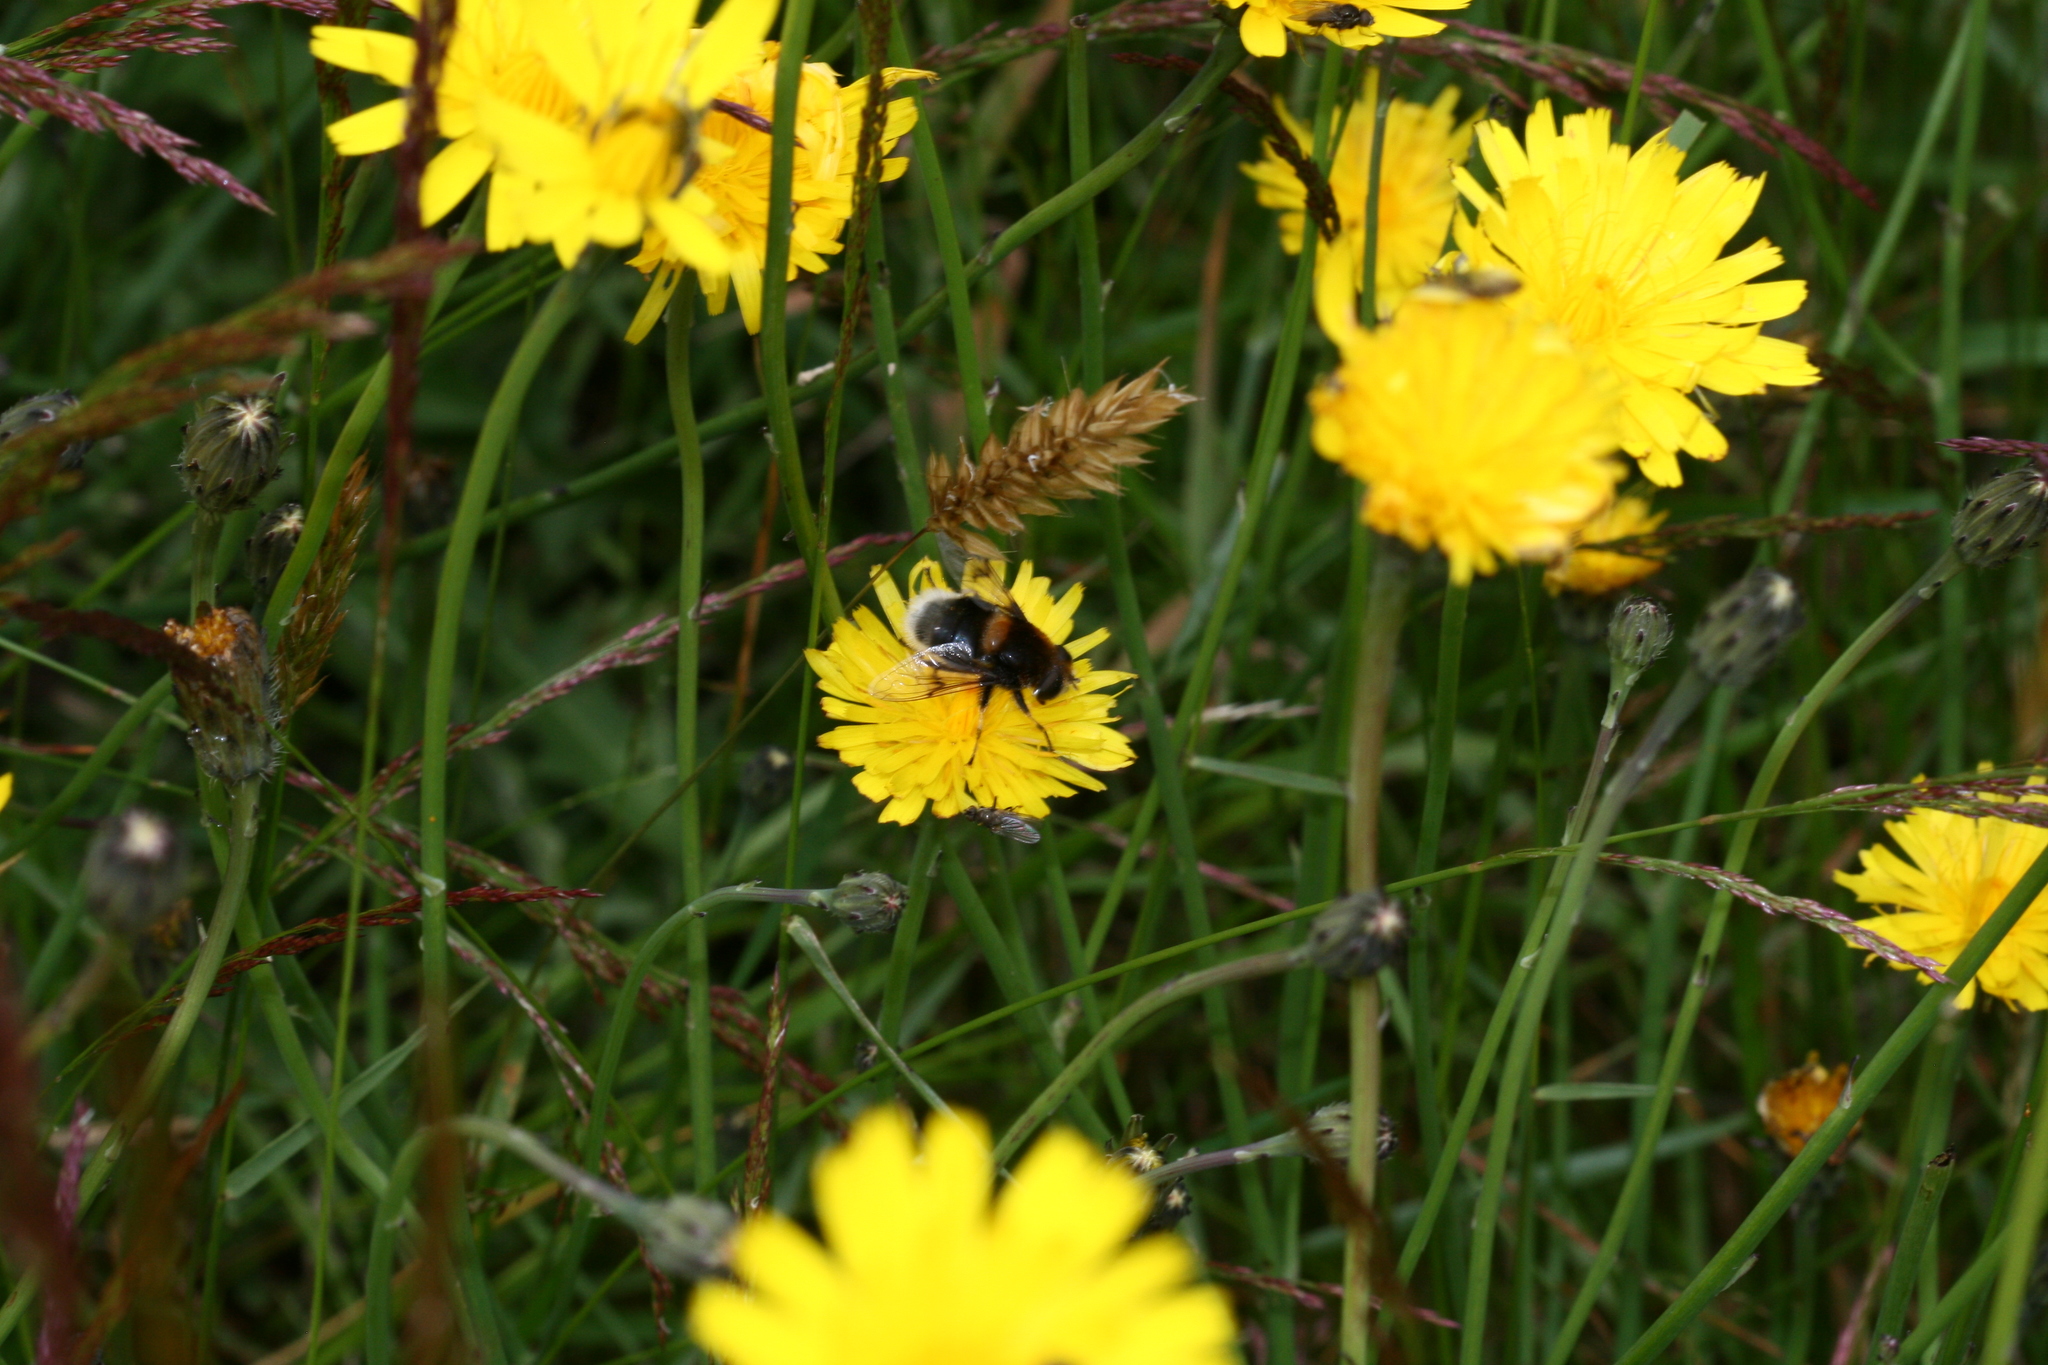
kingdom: Animalia
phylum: Arthropoda
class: Insecta
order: Diptera
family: Syrphidae
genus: Eristalis
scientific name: Eristalis intricaria
